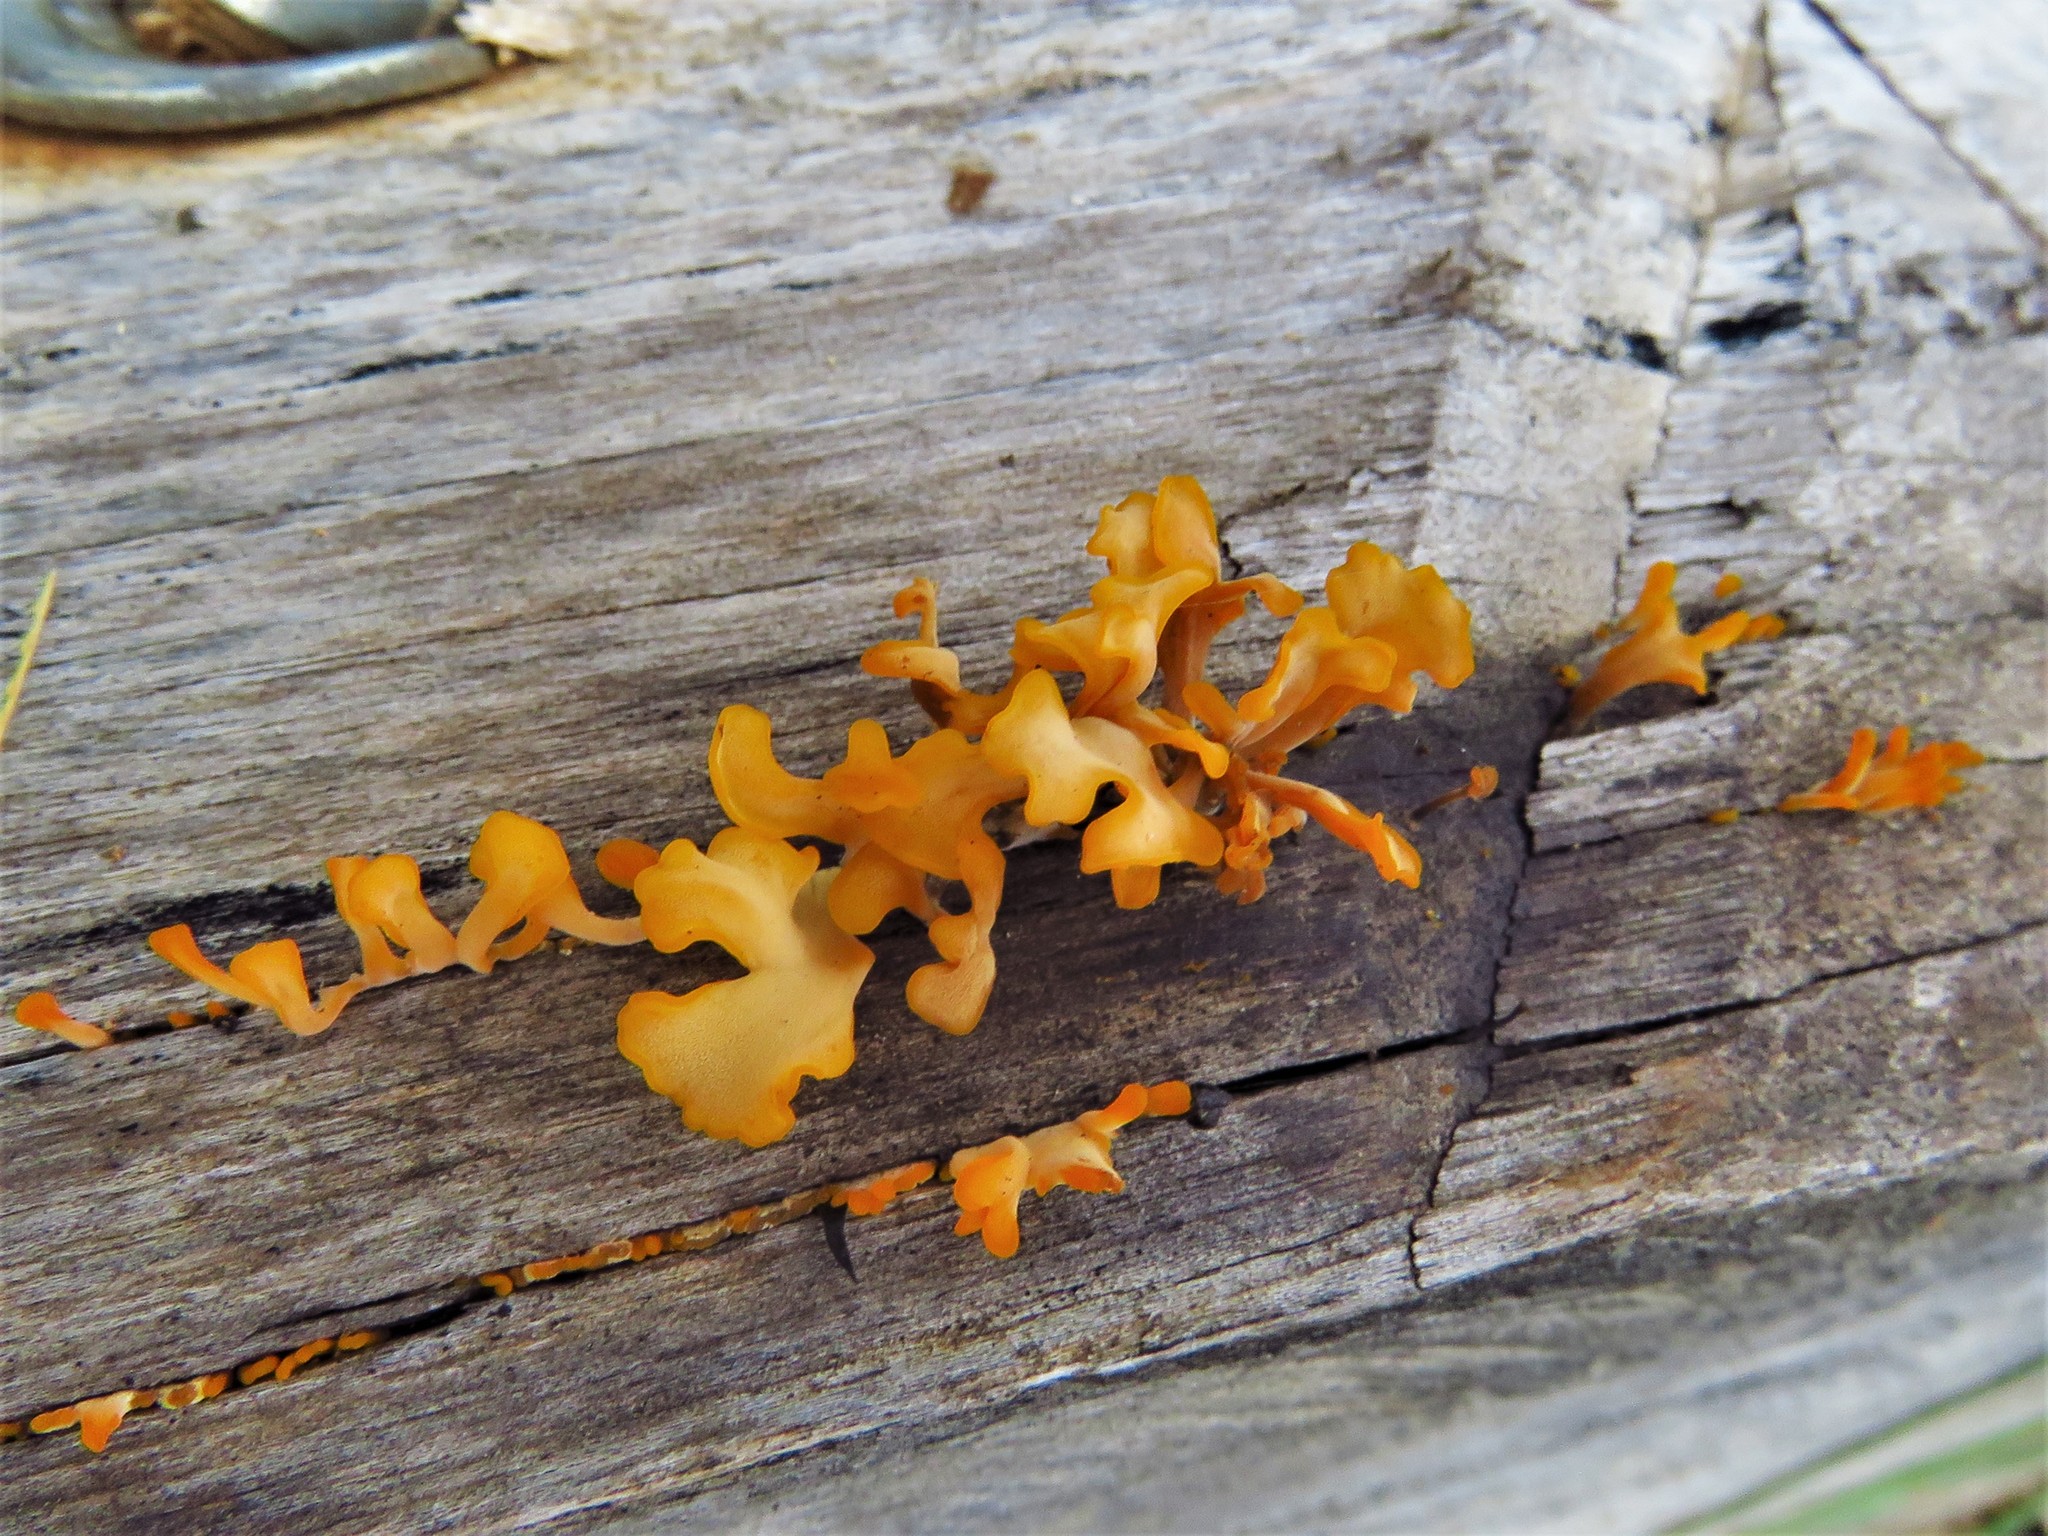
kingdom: Fungi
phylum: Basidiomycota
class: Dacrymycetes
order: Dacrymycetales
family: Dacrymycetaceae
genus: Dacrymyces
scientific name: Dacrymyces spathularius
